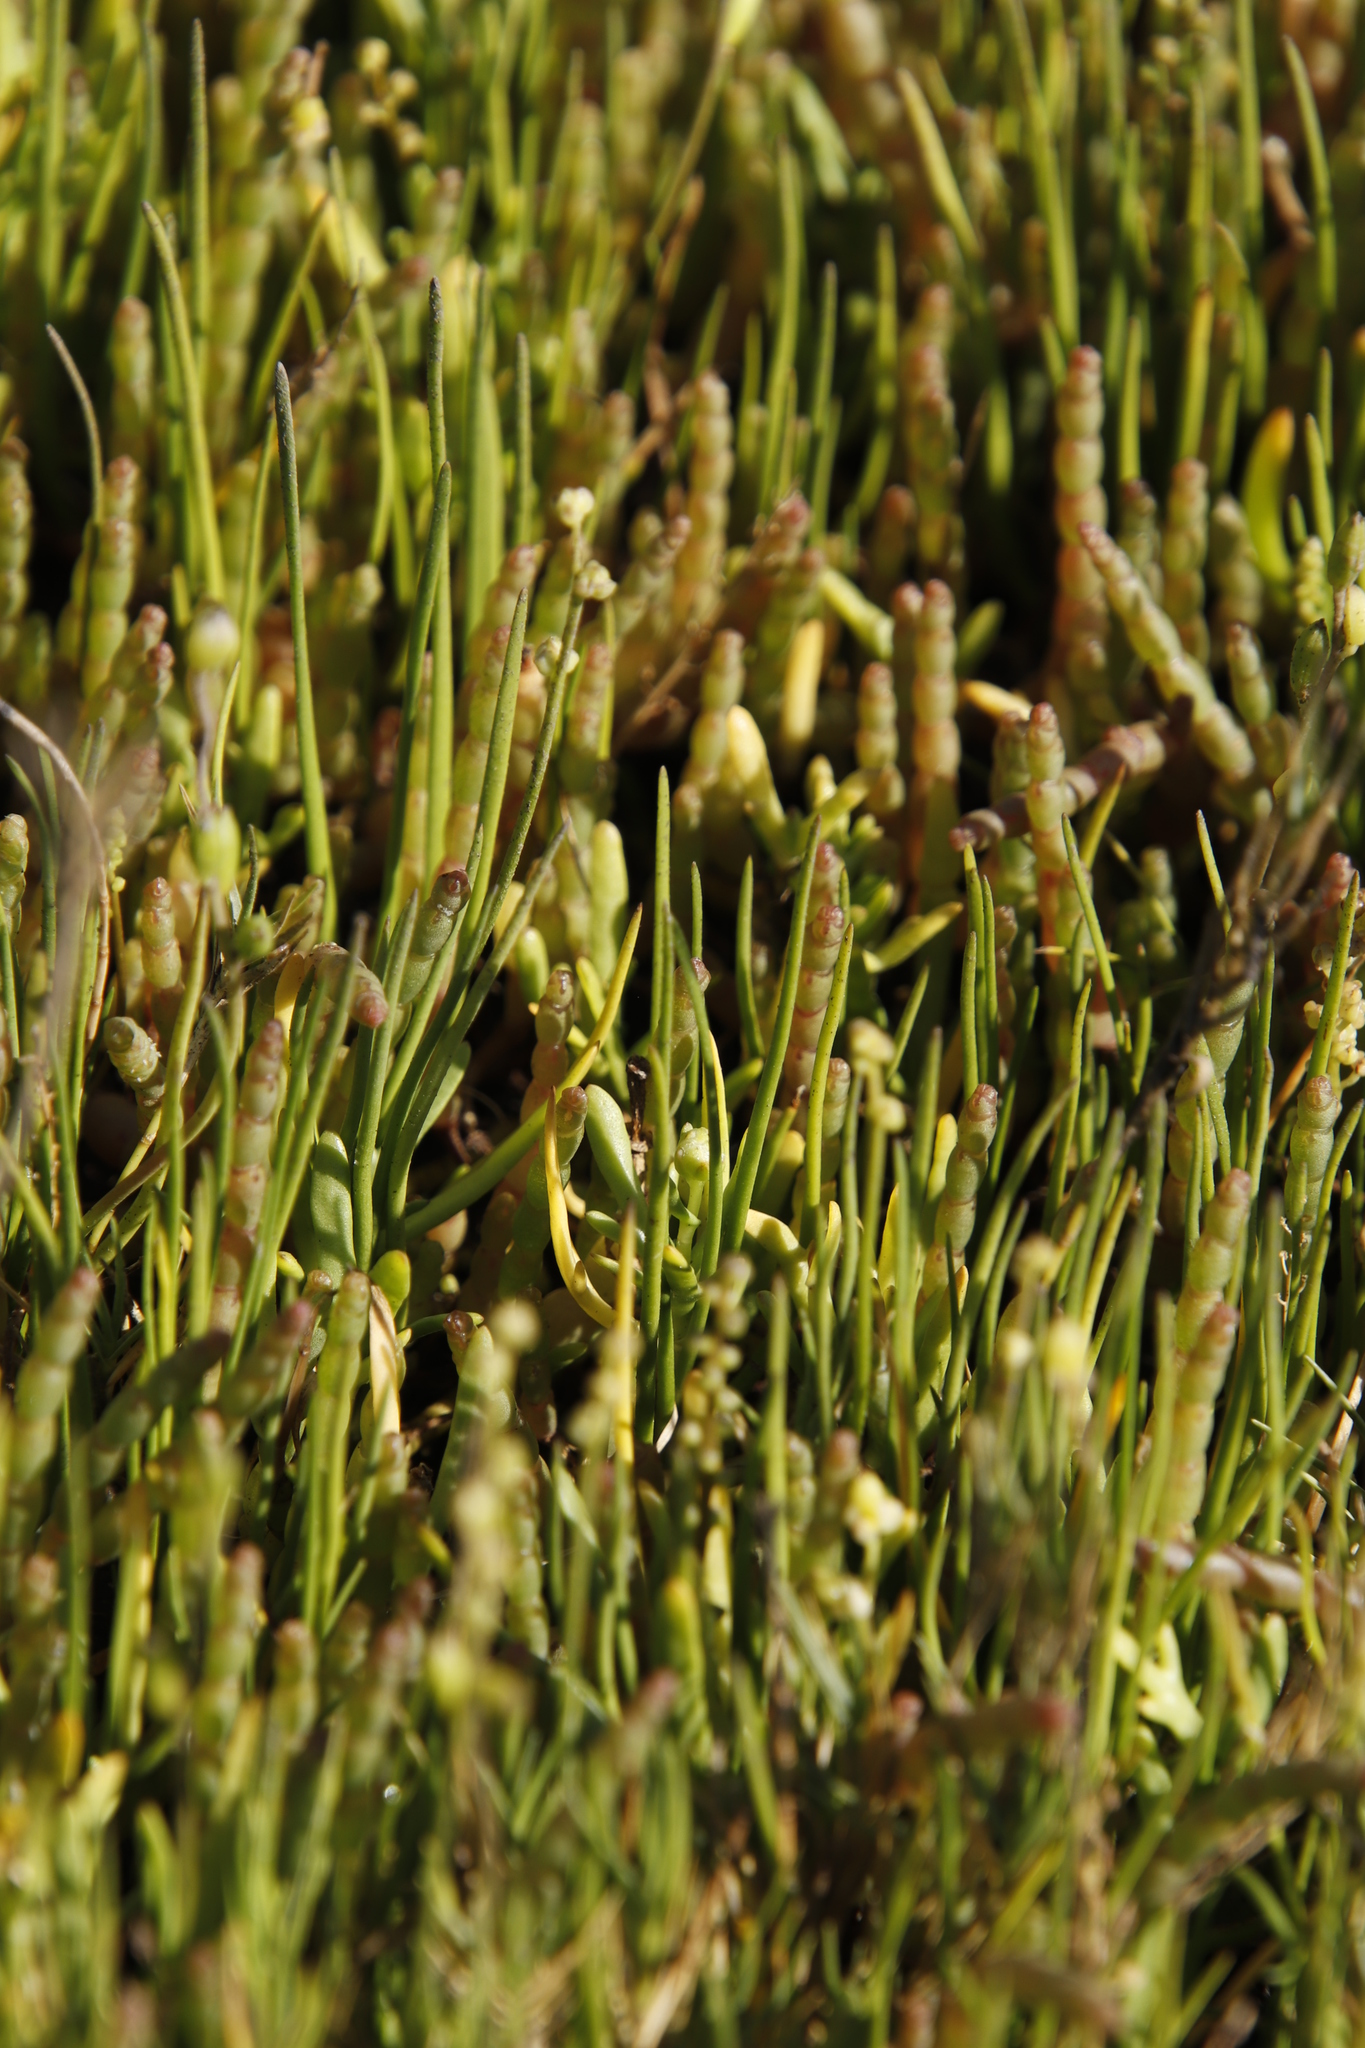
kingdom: Plantae
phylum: Tracheophyta
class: Magnoliopsida
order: Caryophyllales
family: Amaranthaceae
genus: Salicornia
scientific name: Salicornia tegetaria
